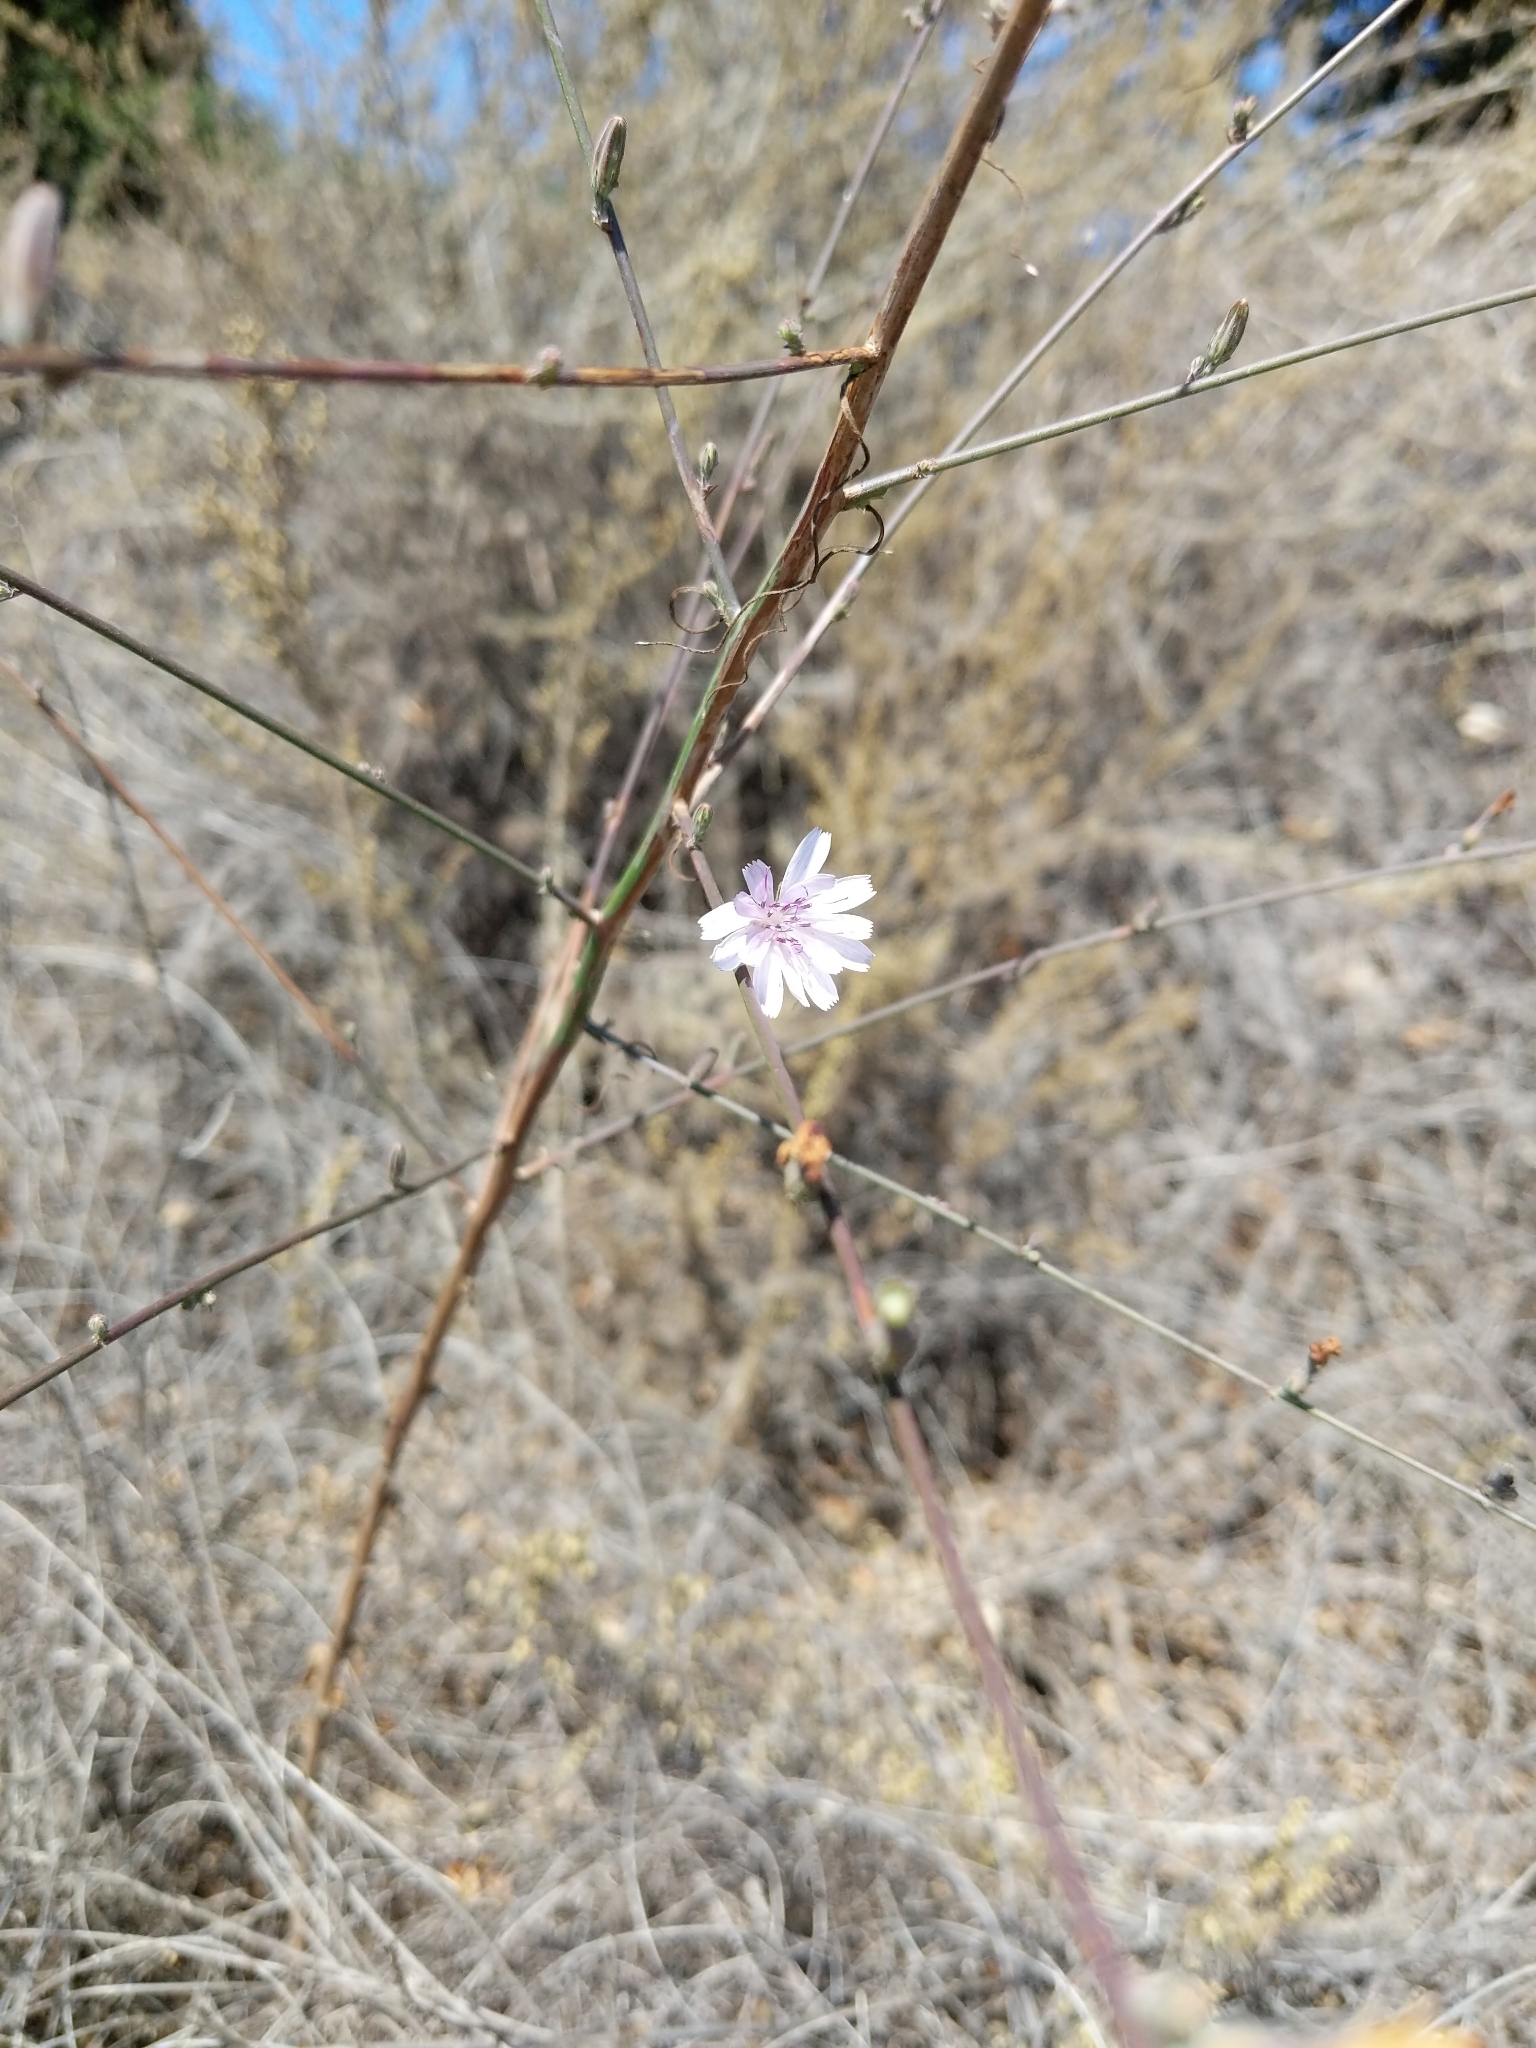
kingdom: Plantae
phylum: Tracheophyta
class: Magnoliopsida
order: Asterales
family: Asteraceae
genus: Stephanomeria
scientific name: Stephanomeria diegensis
